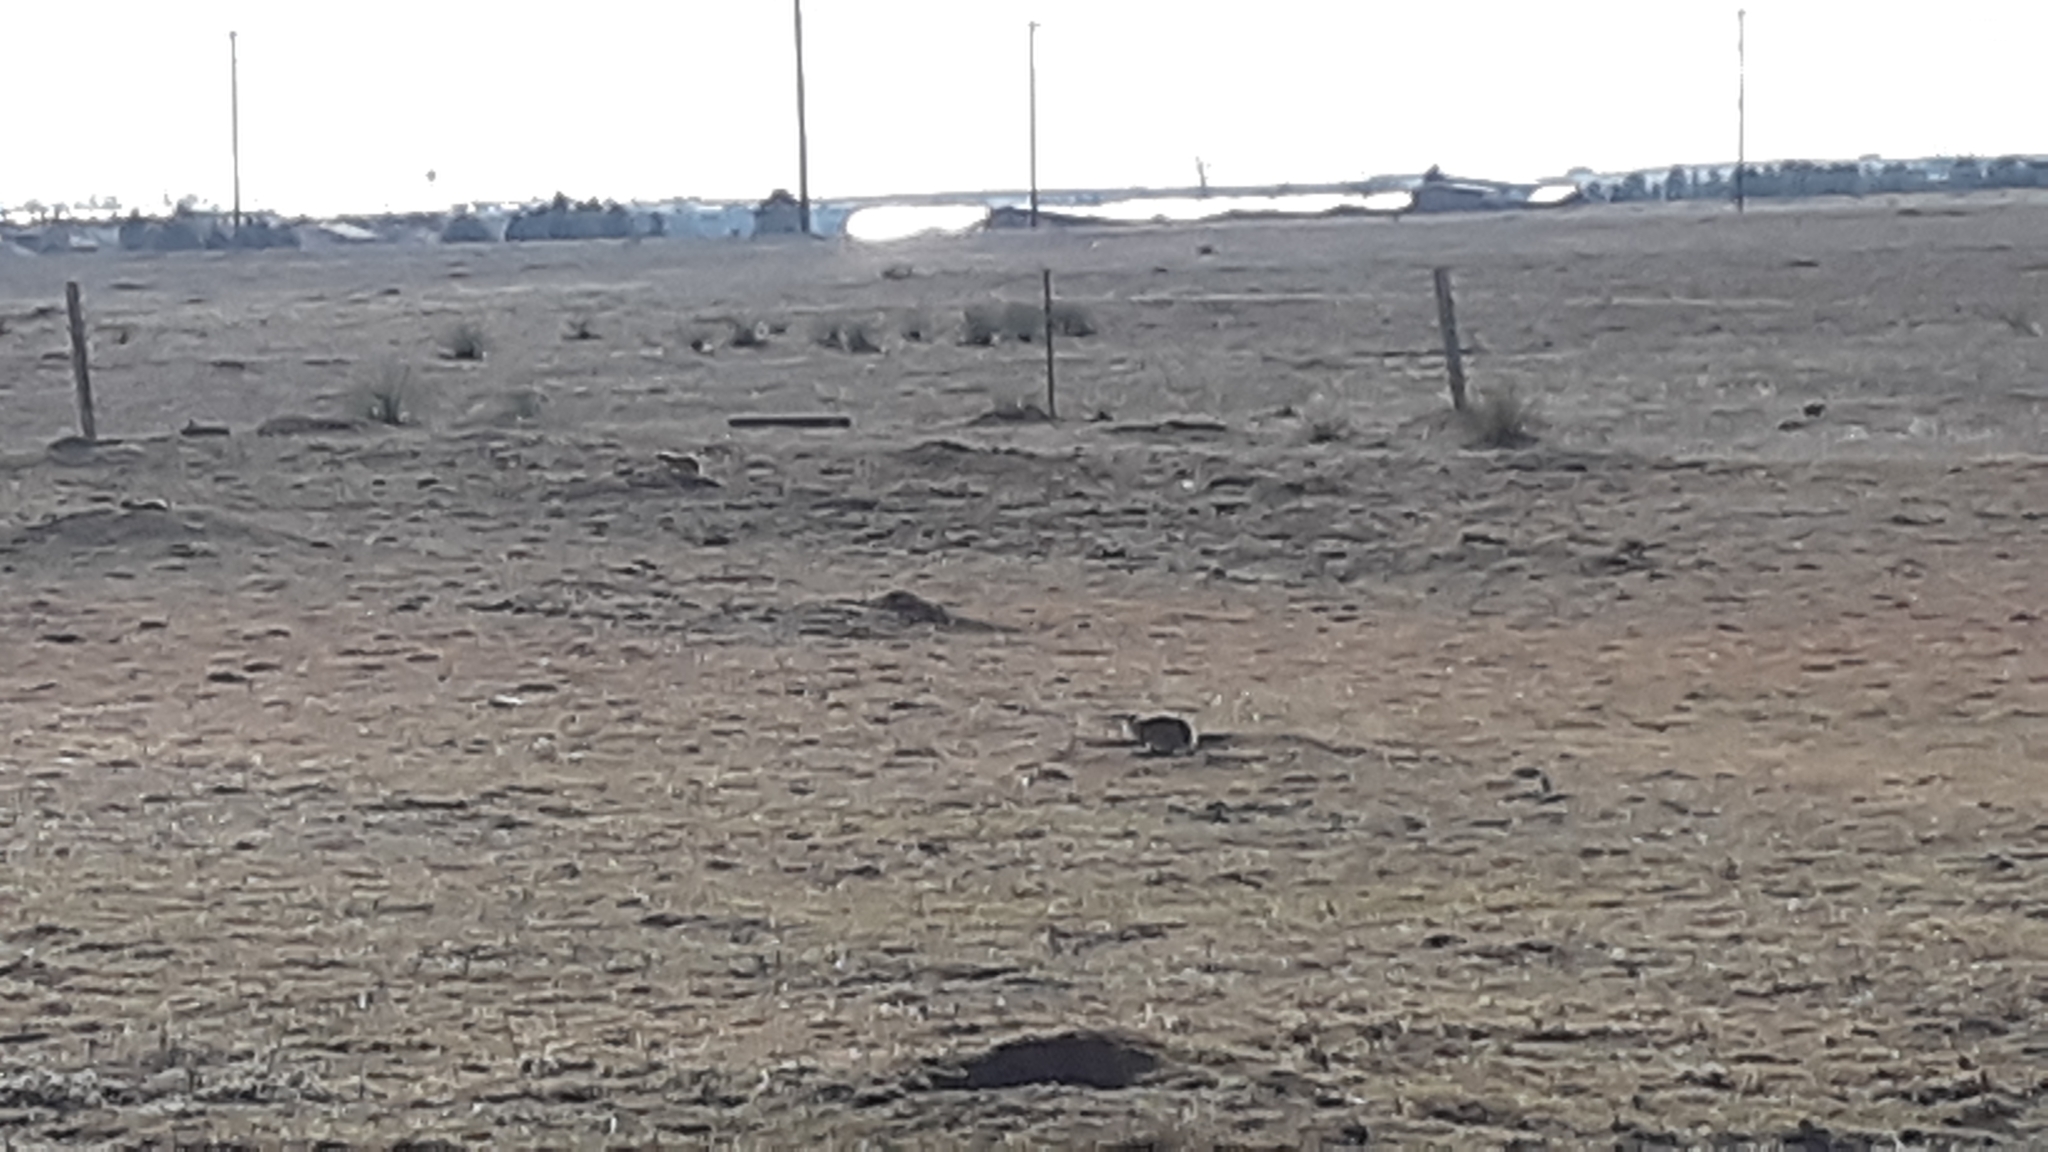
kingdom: Animalia
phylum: Chordata
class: Mammalia
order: Rodentia
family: Sciuridae
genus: Cynomys
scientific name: Cynomys ludovicianus
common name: Black-tailed prairie dog
